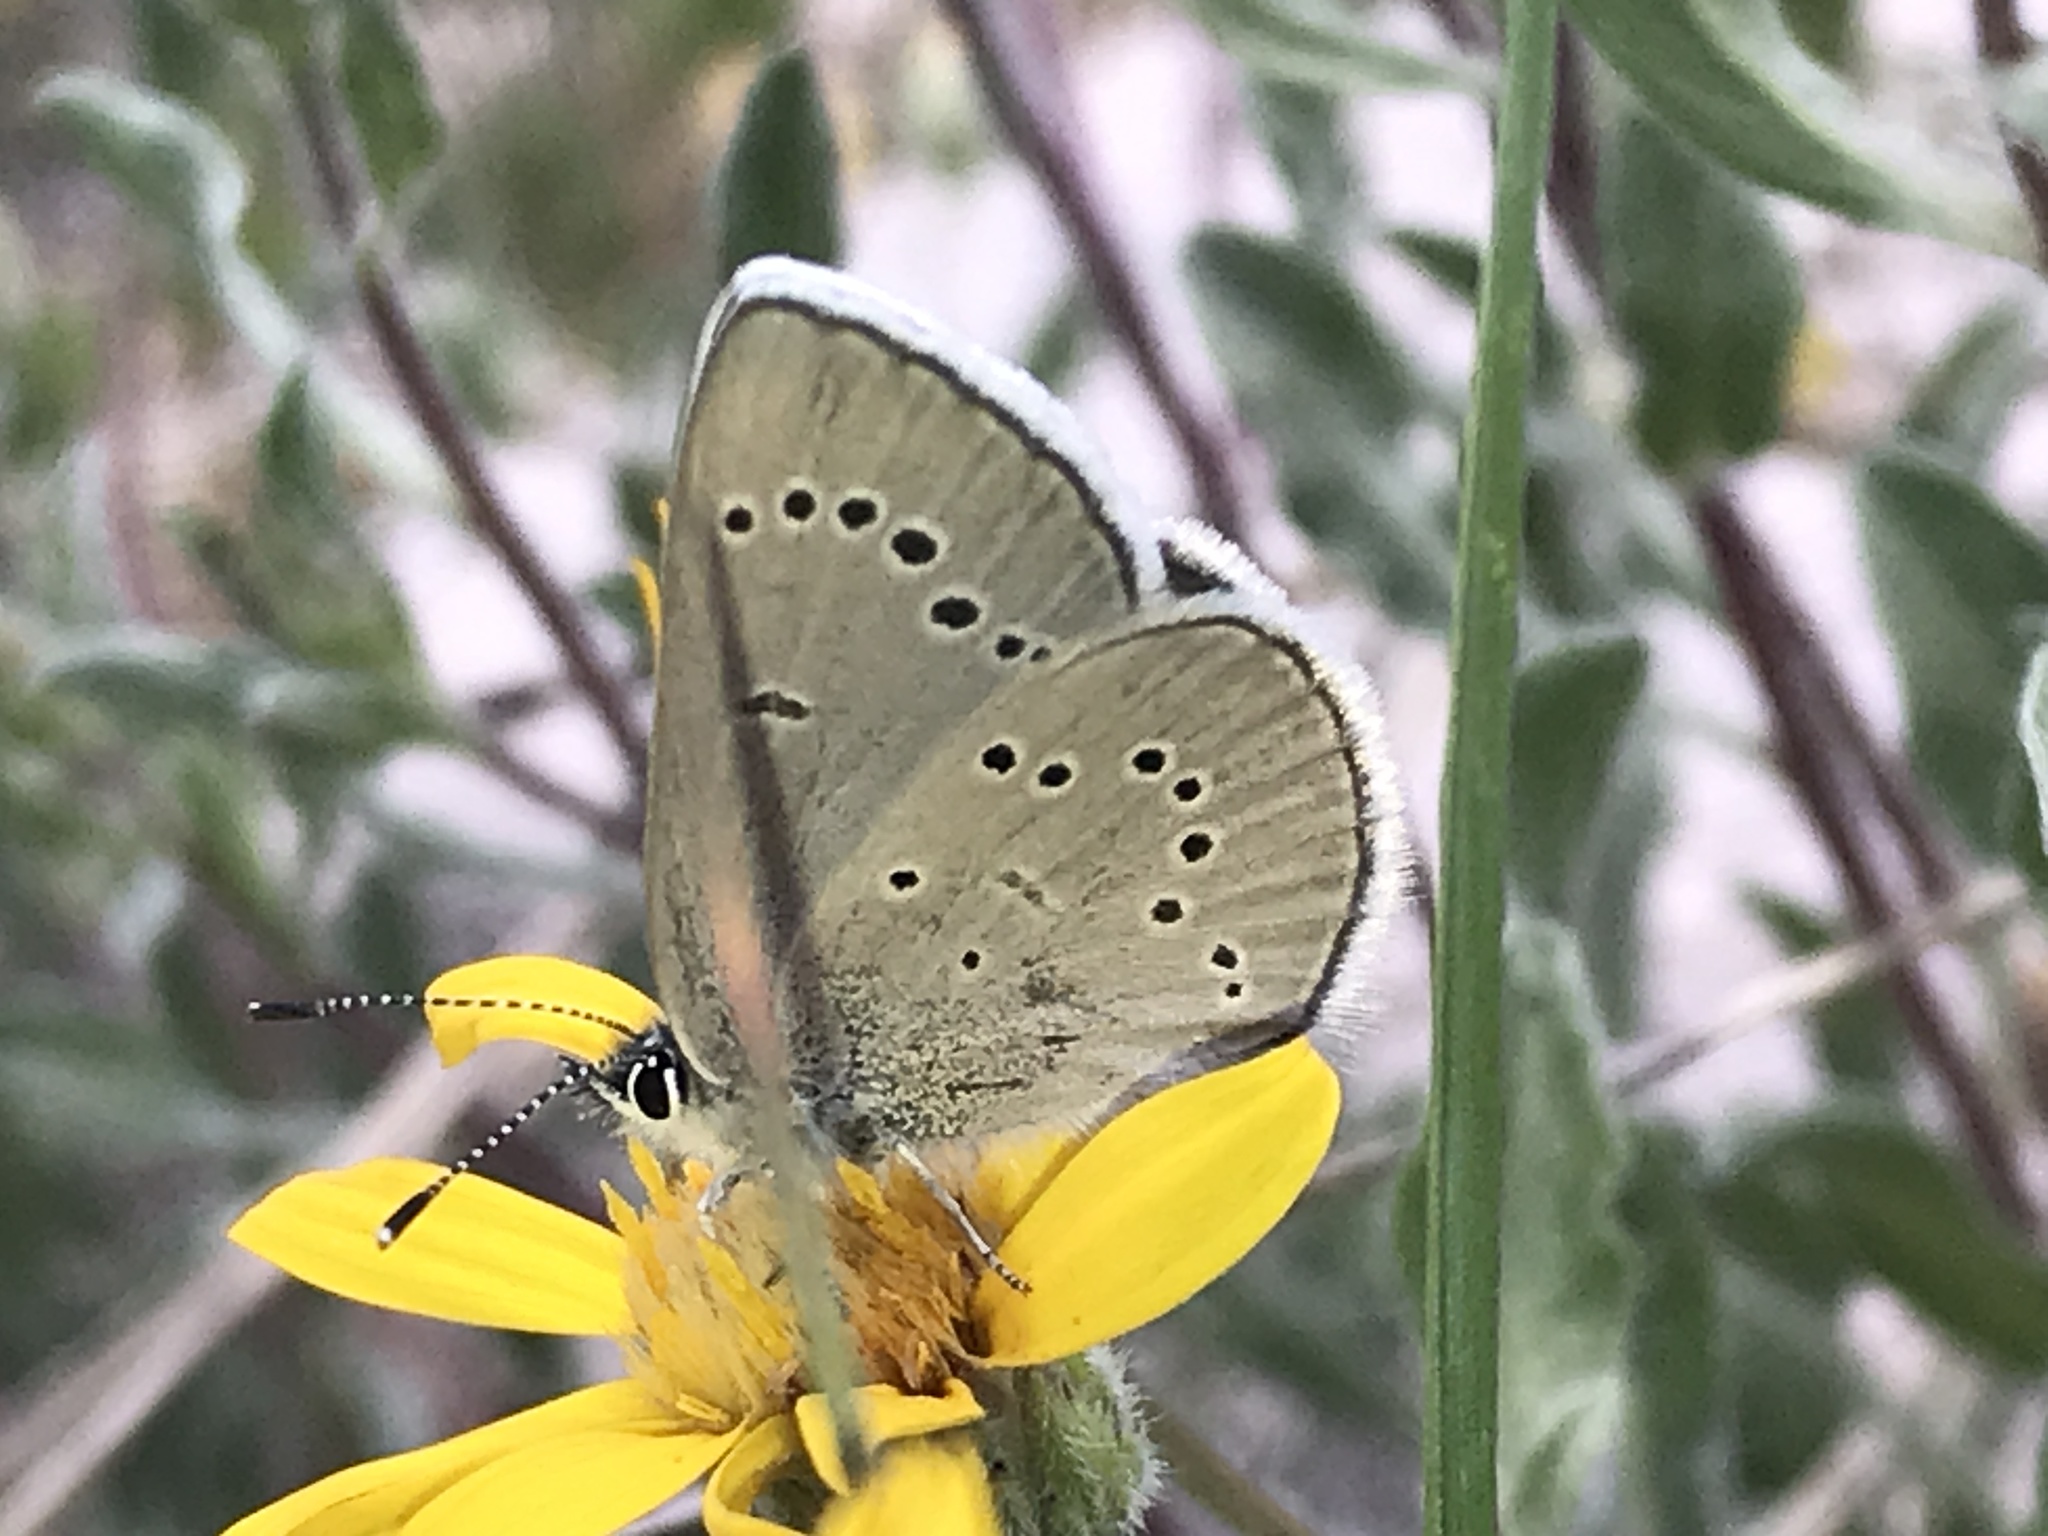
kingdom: Animalia
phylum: Arthropoda
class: Insecta
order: Lepidoptera
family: Lycaenidae
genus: Glaucopsyche
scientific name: Glaucopsyche lygdamus
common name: Silvery blue
